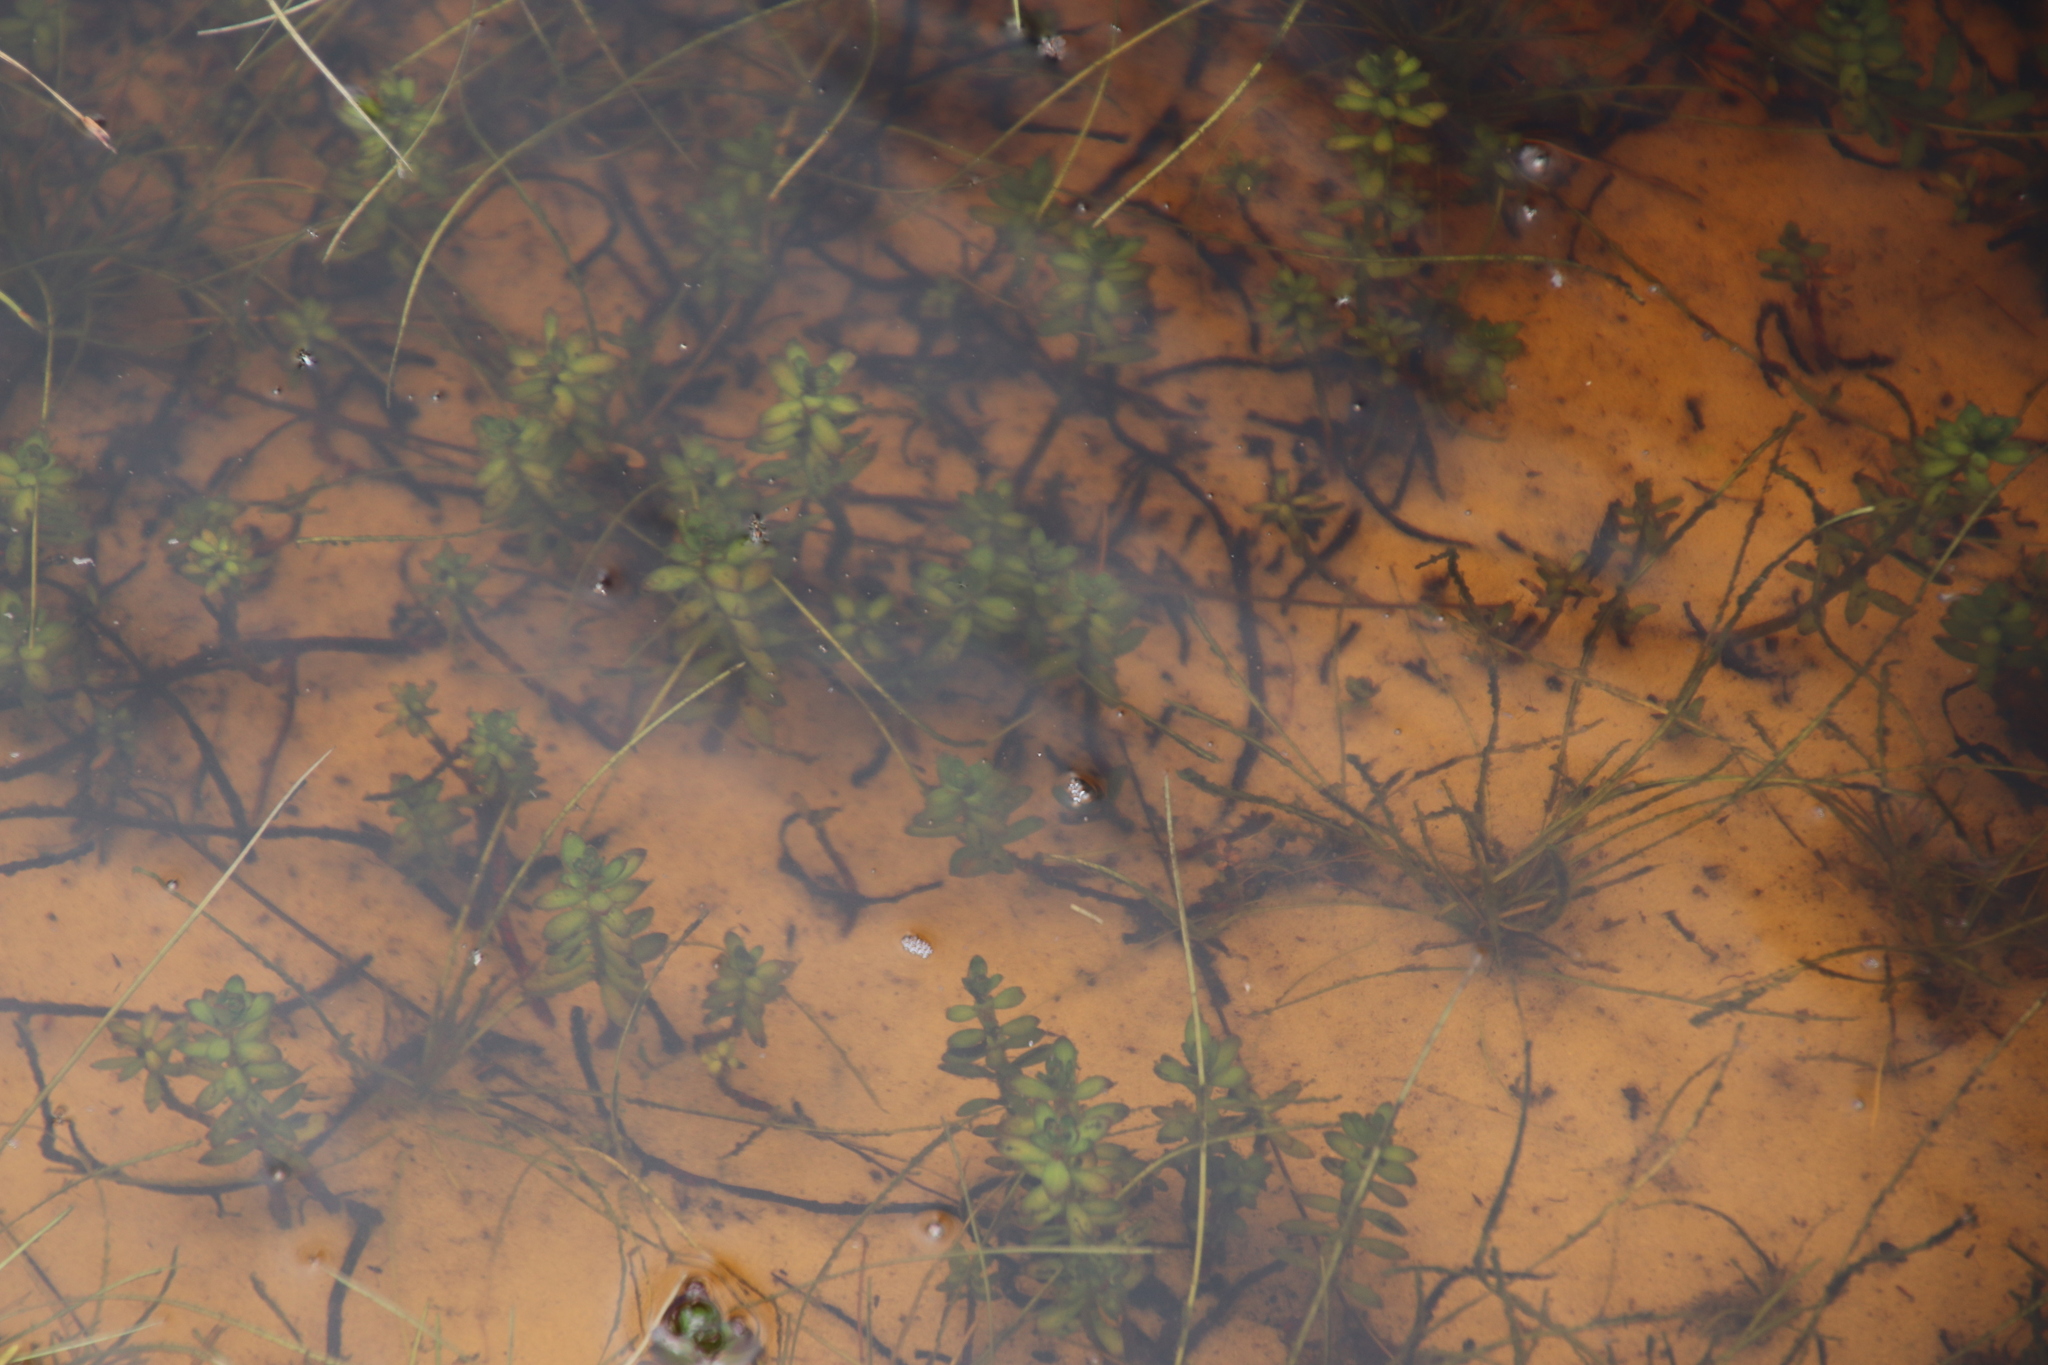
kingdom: Plantae
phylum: Tracheophyta
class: Magnoliopsida
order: Saxifragales
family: Haloragaceae
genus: Laurembergia
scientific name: Laurembergia repens
